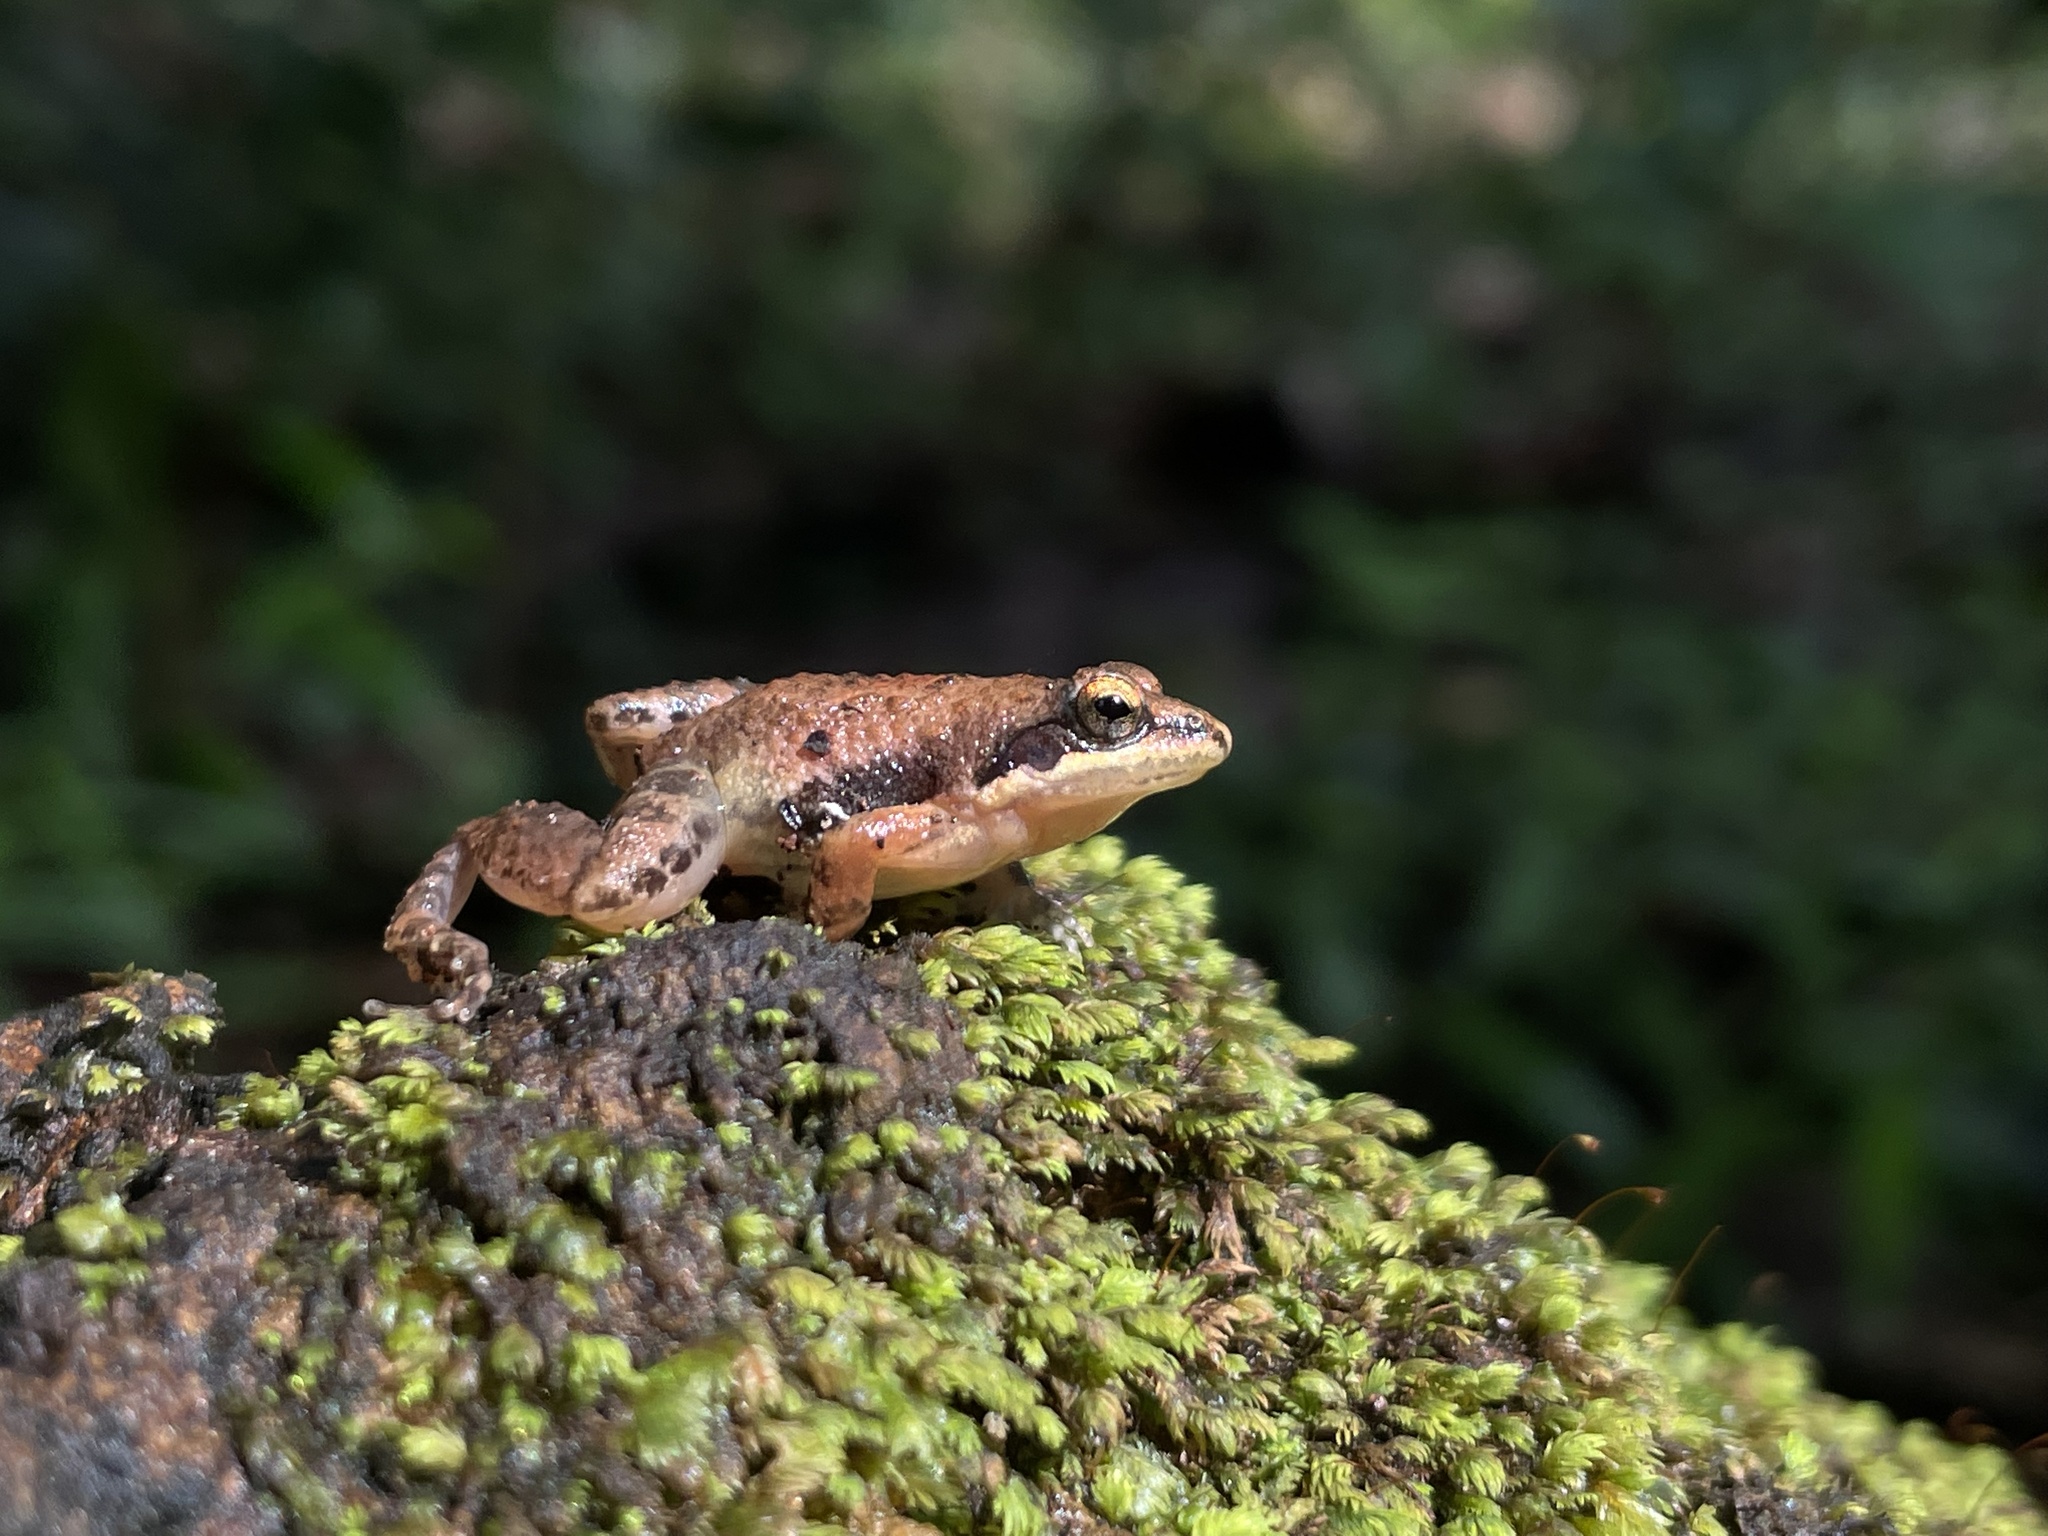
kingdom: Animalia
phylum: Chordata
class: Amphibia
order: Anura
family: Dicroglossidae
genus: Minervarya
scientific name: Minervarya gomantaki
